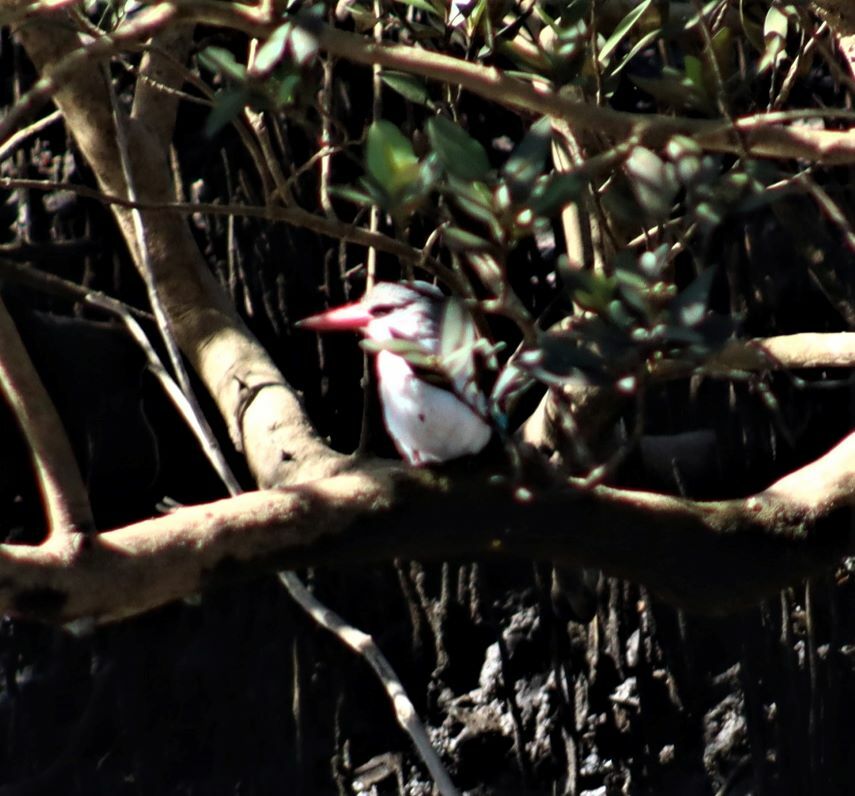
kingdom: Animalia
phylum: Chordata
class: Aves
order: Coraciiformes
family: Alcedinidae
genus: Halcyon
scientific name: Halcyon senegaloides
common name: Mangrove kingfisher
